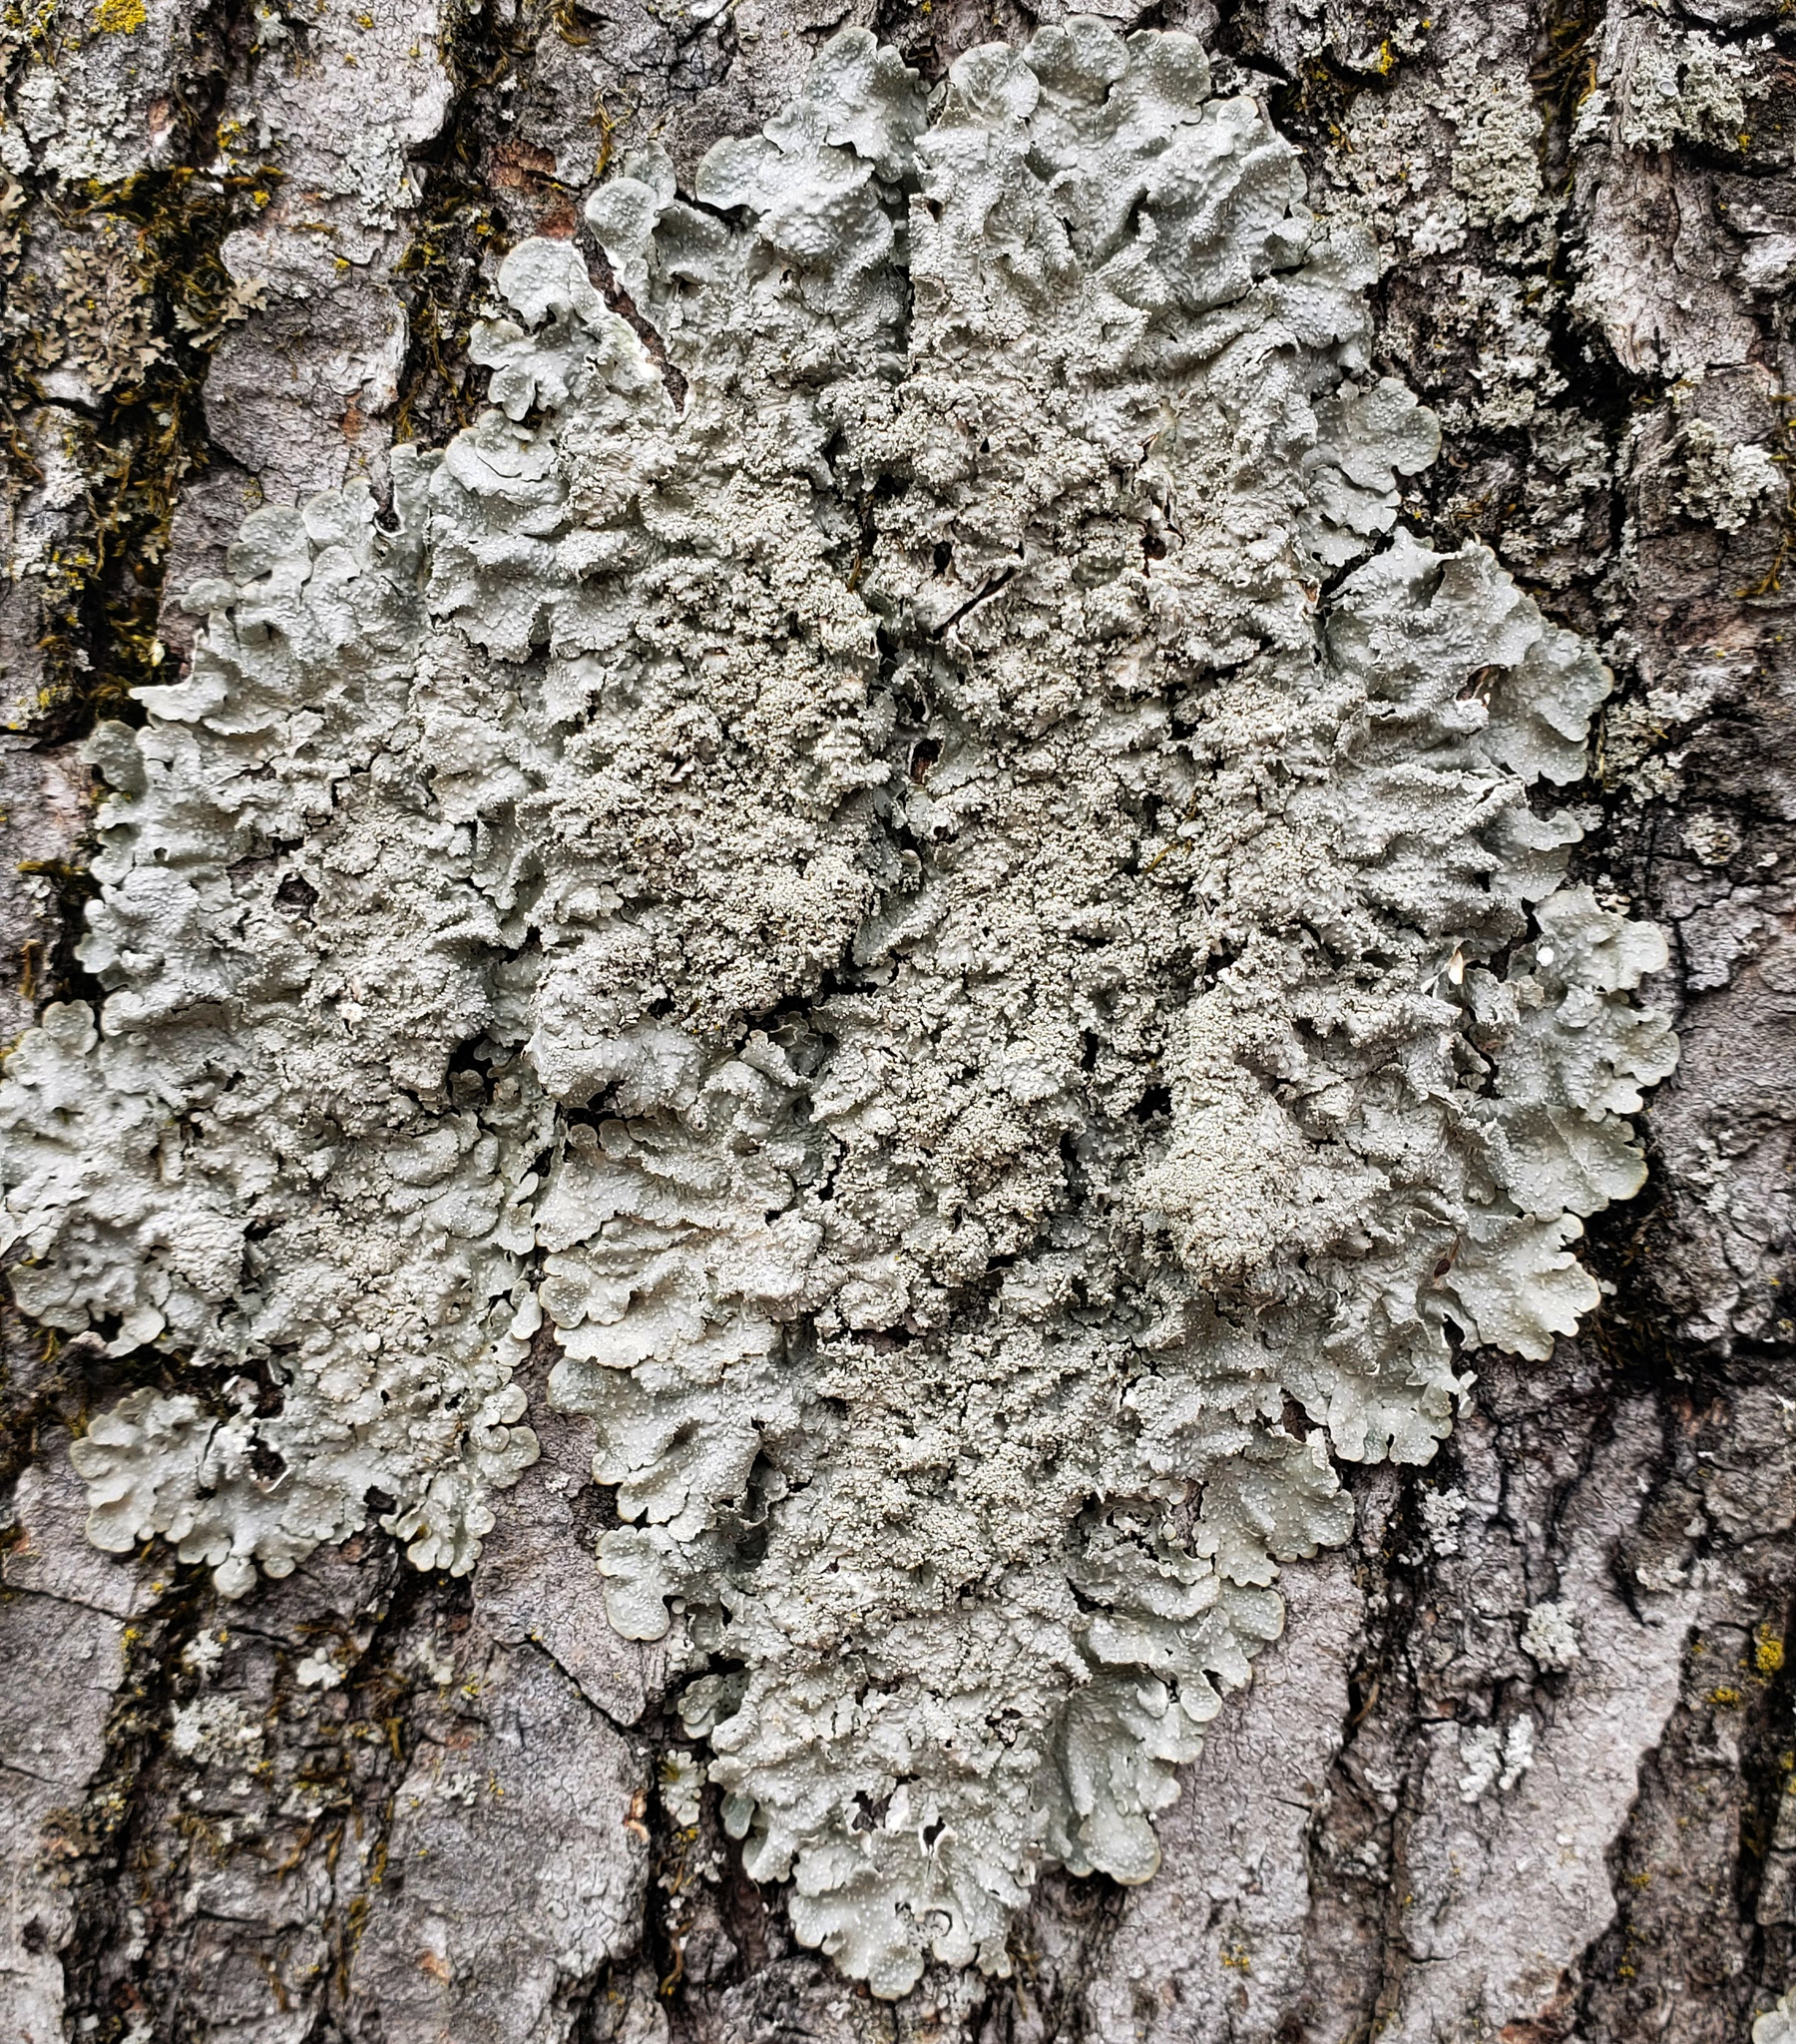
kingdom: Fungi
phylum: Ascomycota
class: Lecanoromycetes
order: Lecanorales
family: Parmeliaceae
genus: Punctelia
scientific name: Punctelia missouriensis
